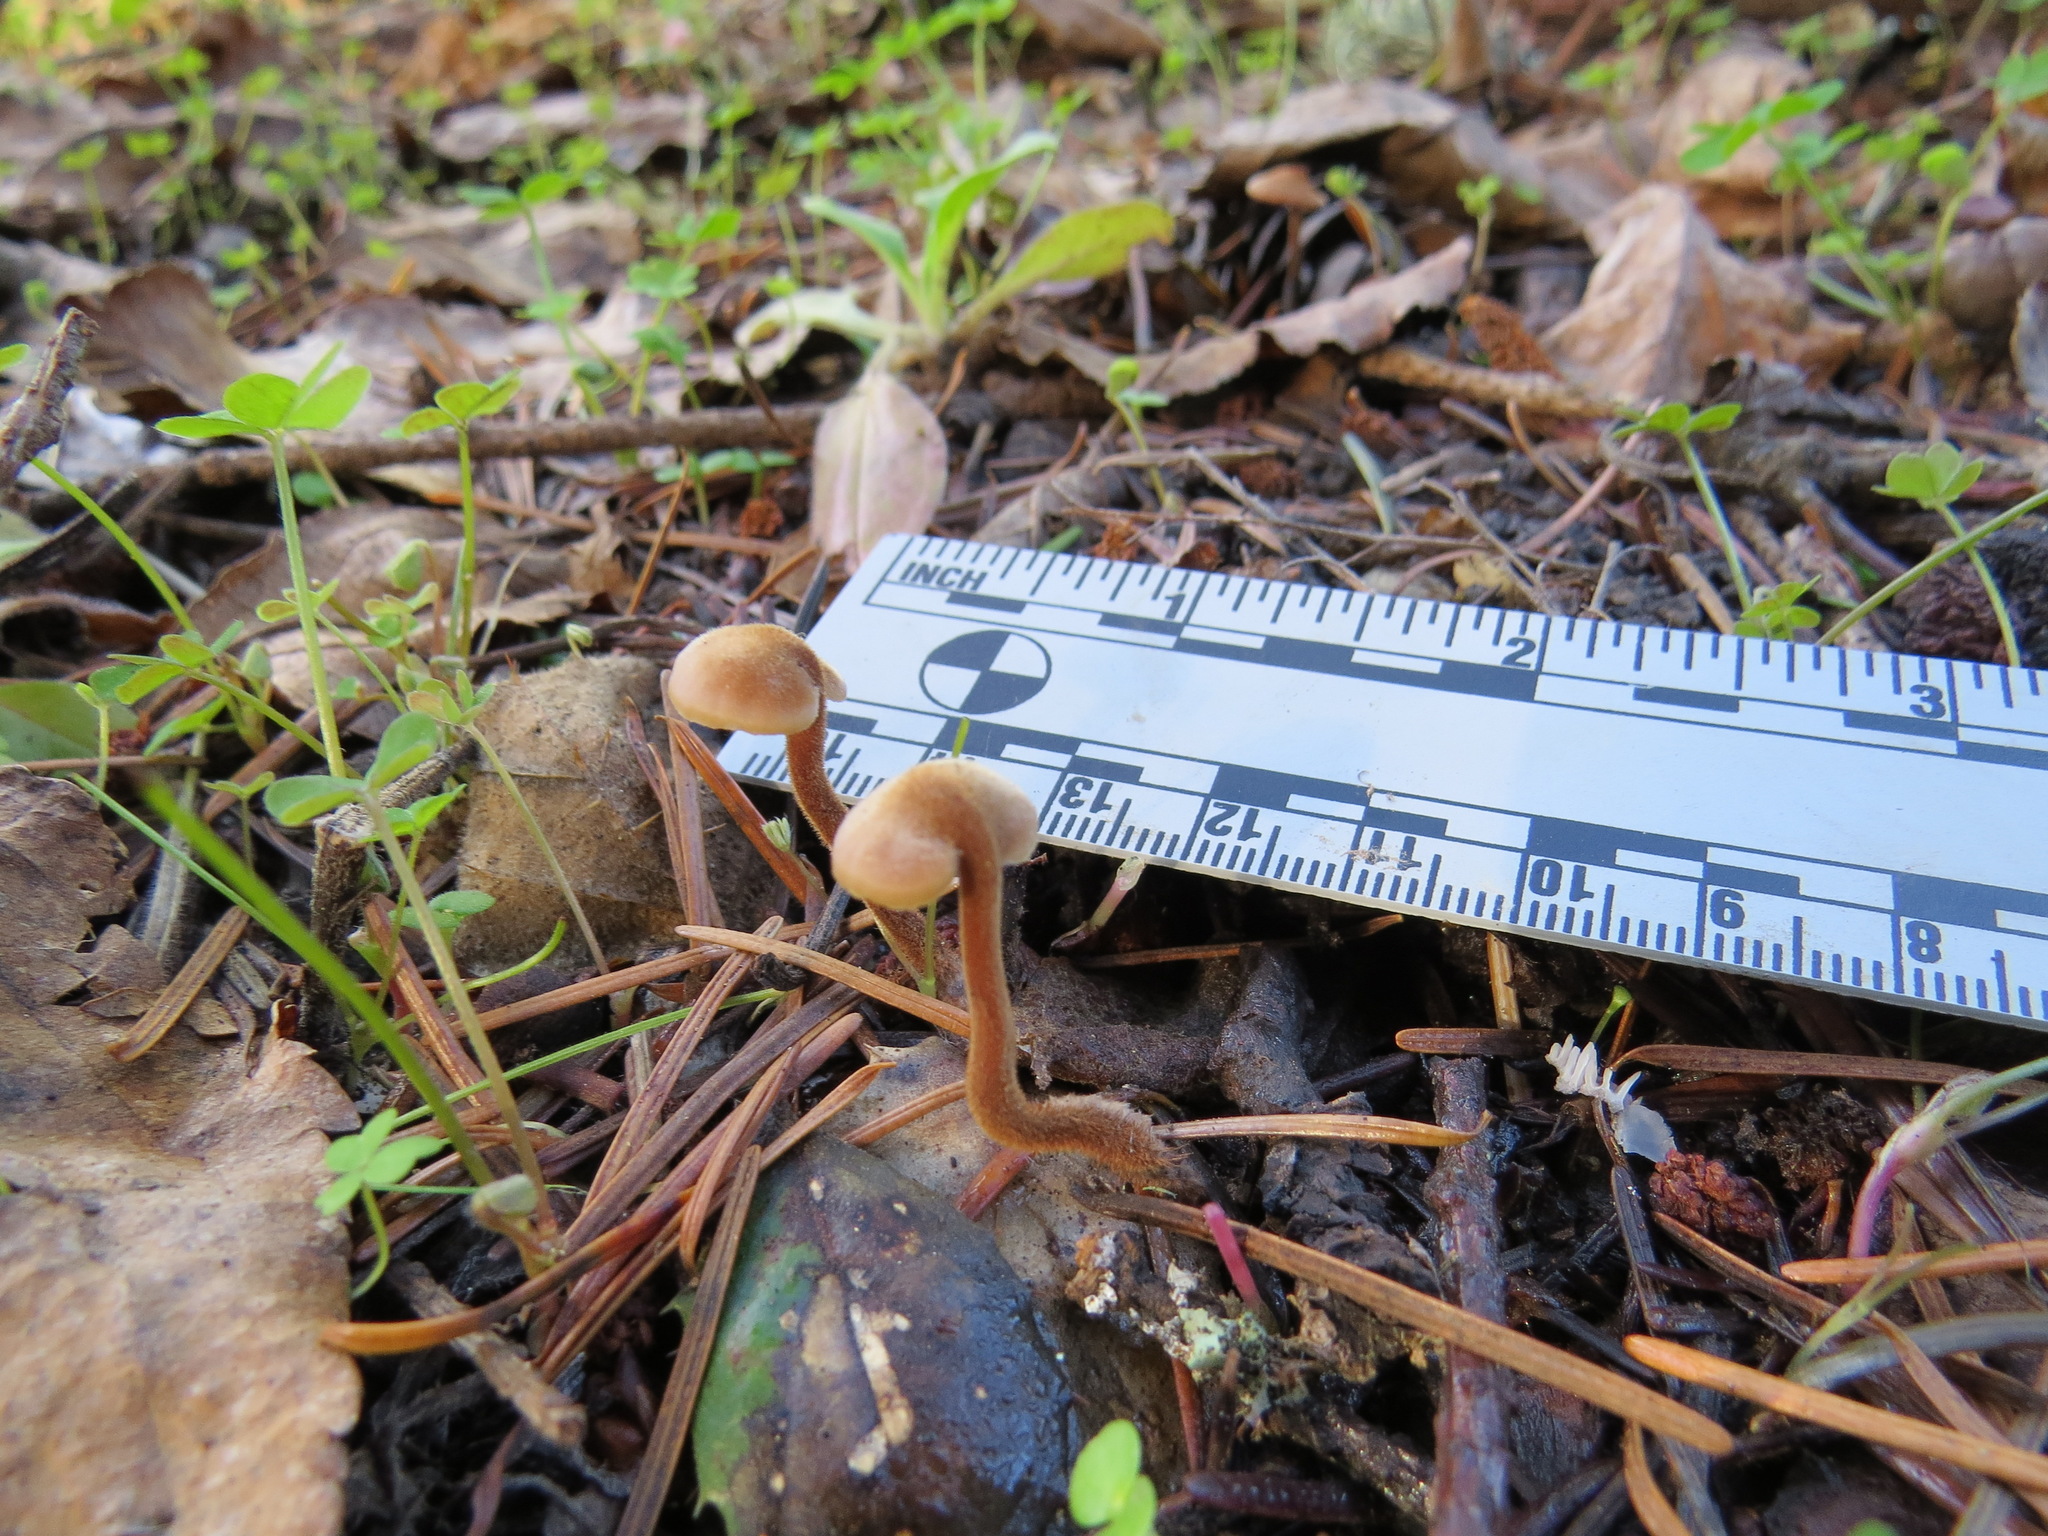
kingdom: Fungi
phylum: Basidiomycota
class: Agaricomycetes
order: Russulales
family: Auriscalpiaceae
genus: Auriscalpium
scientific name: Auriscalpium vulgare
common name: Earpick fungus
